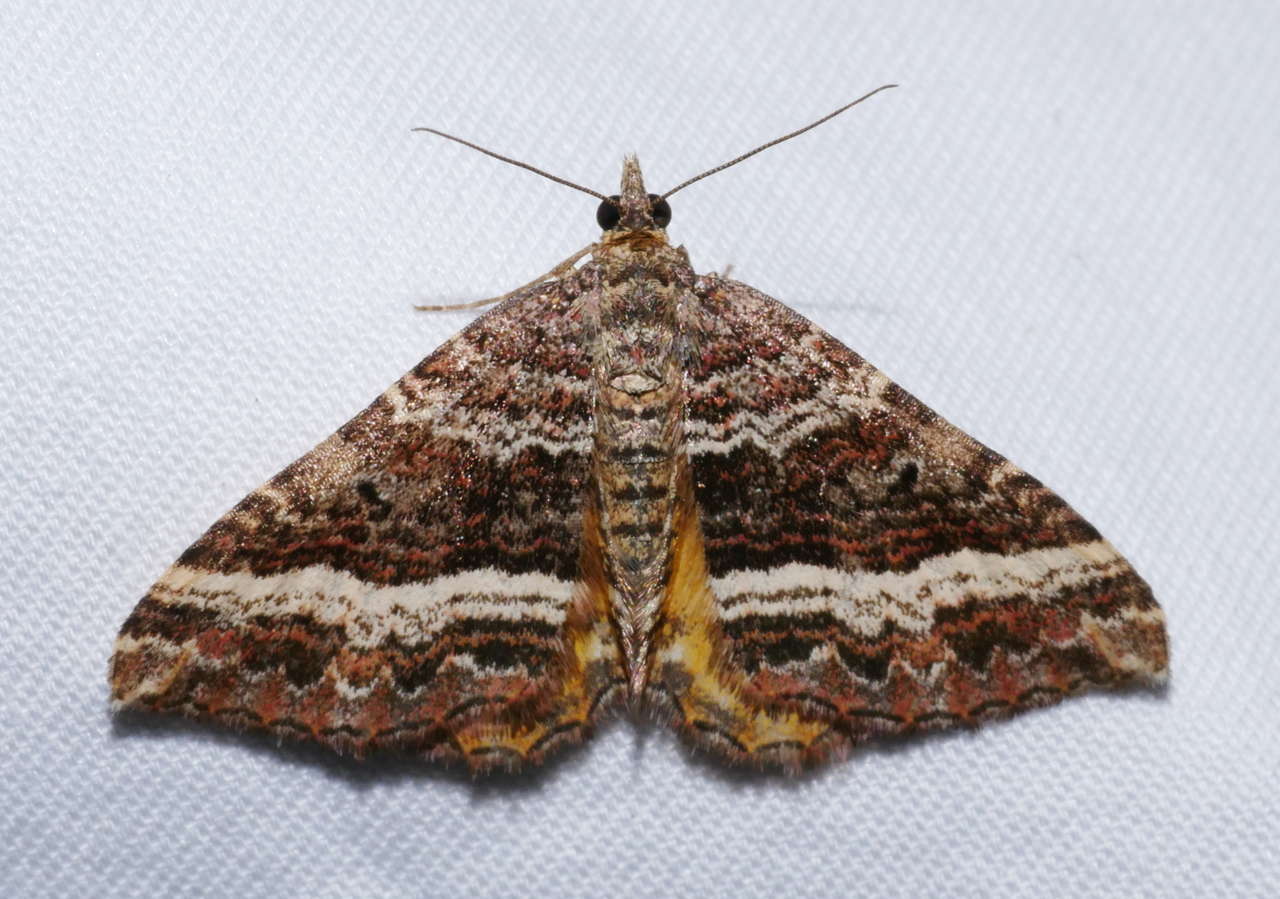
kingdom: Animalia
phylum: Arthropoda
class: Insecta
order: Lepidoptera
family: Geometridae
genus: Chrysolarentia
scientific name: Chrysolarentia vicissata
